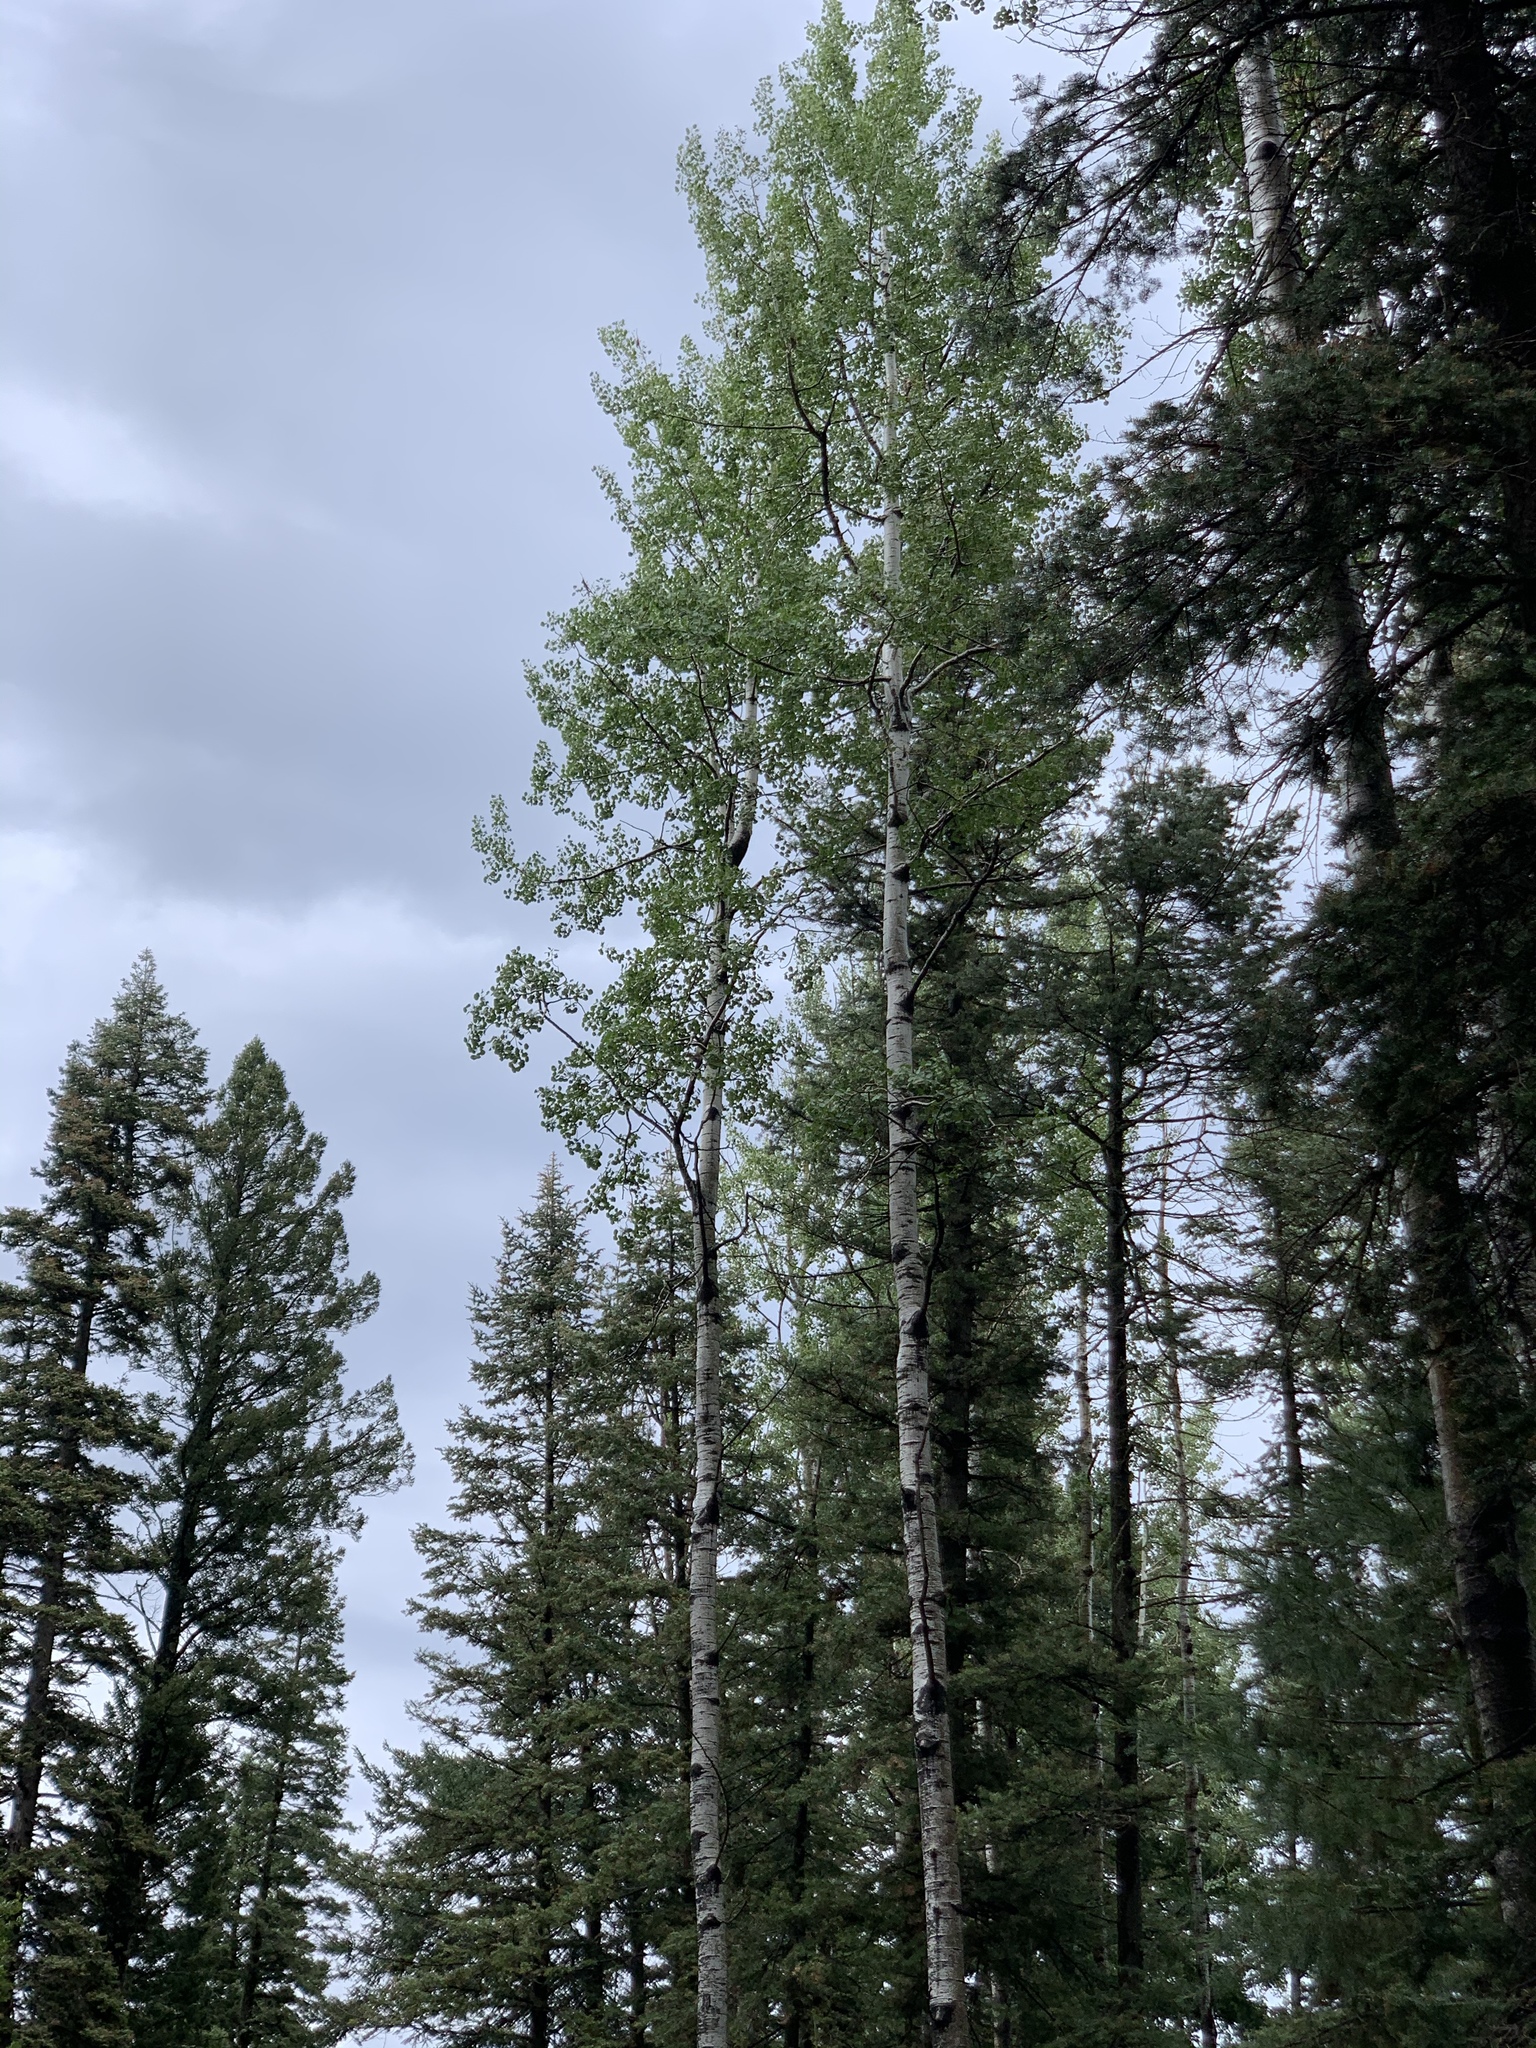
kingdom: Plantae
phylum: Tracheophyta
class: Magnoliopsida
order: Malpighiales
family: Salicaceae
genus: Populus
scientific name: Populus tremuloides
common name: Quaking aspen
